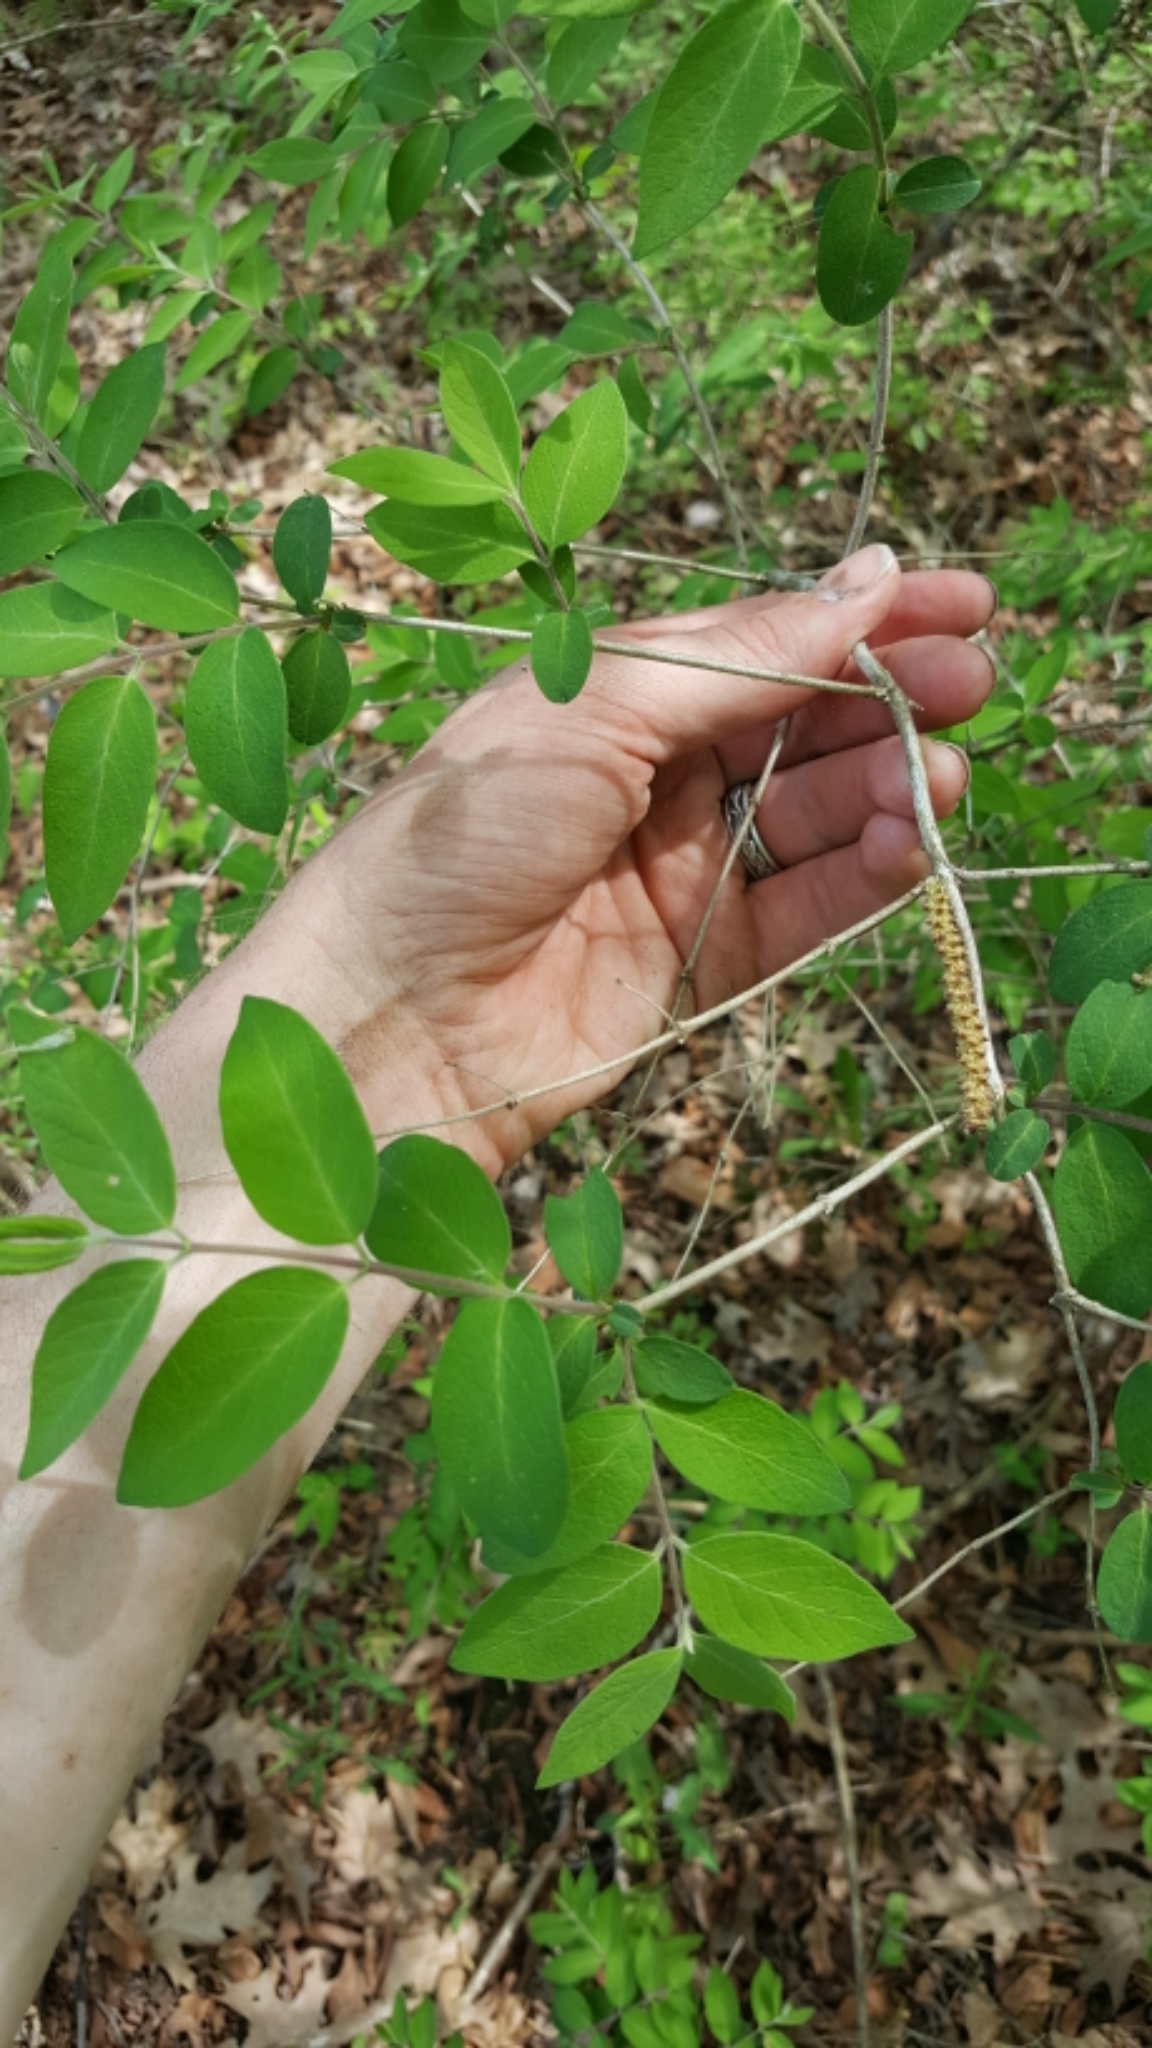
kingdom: Plantae
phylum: Tracheophyta
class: Magnoliopsida
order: Dipsacales
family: Caprifoliaceae
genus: Lonicera
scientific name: Lonicera morrowii
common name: Morrow's honeysuckle
